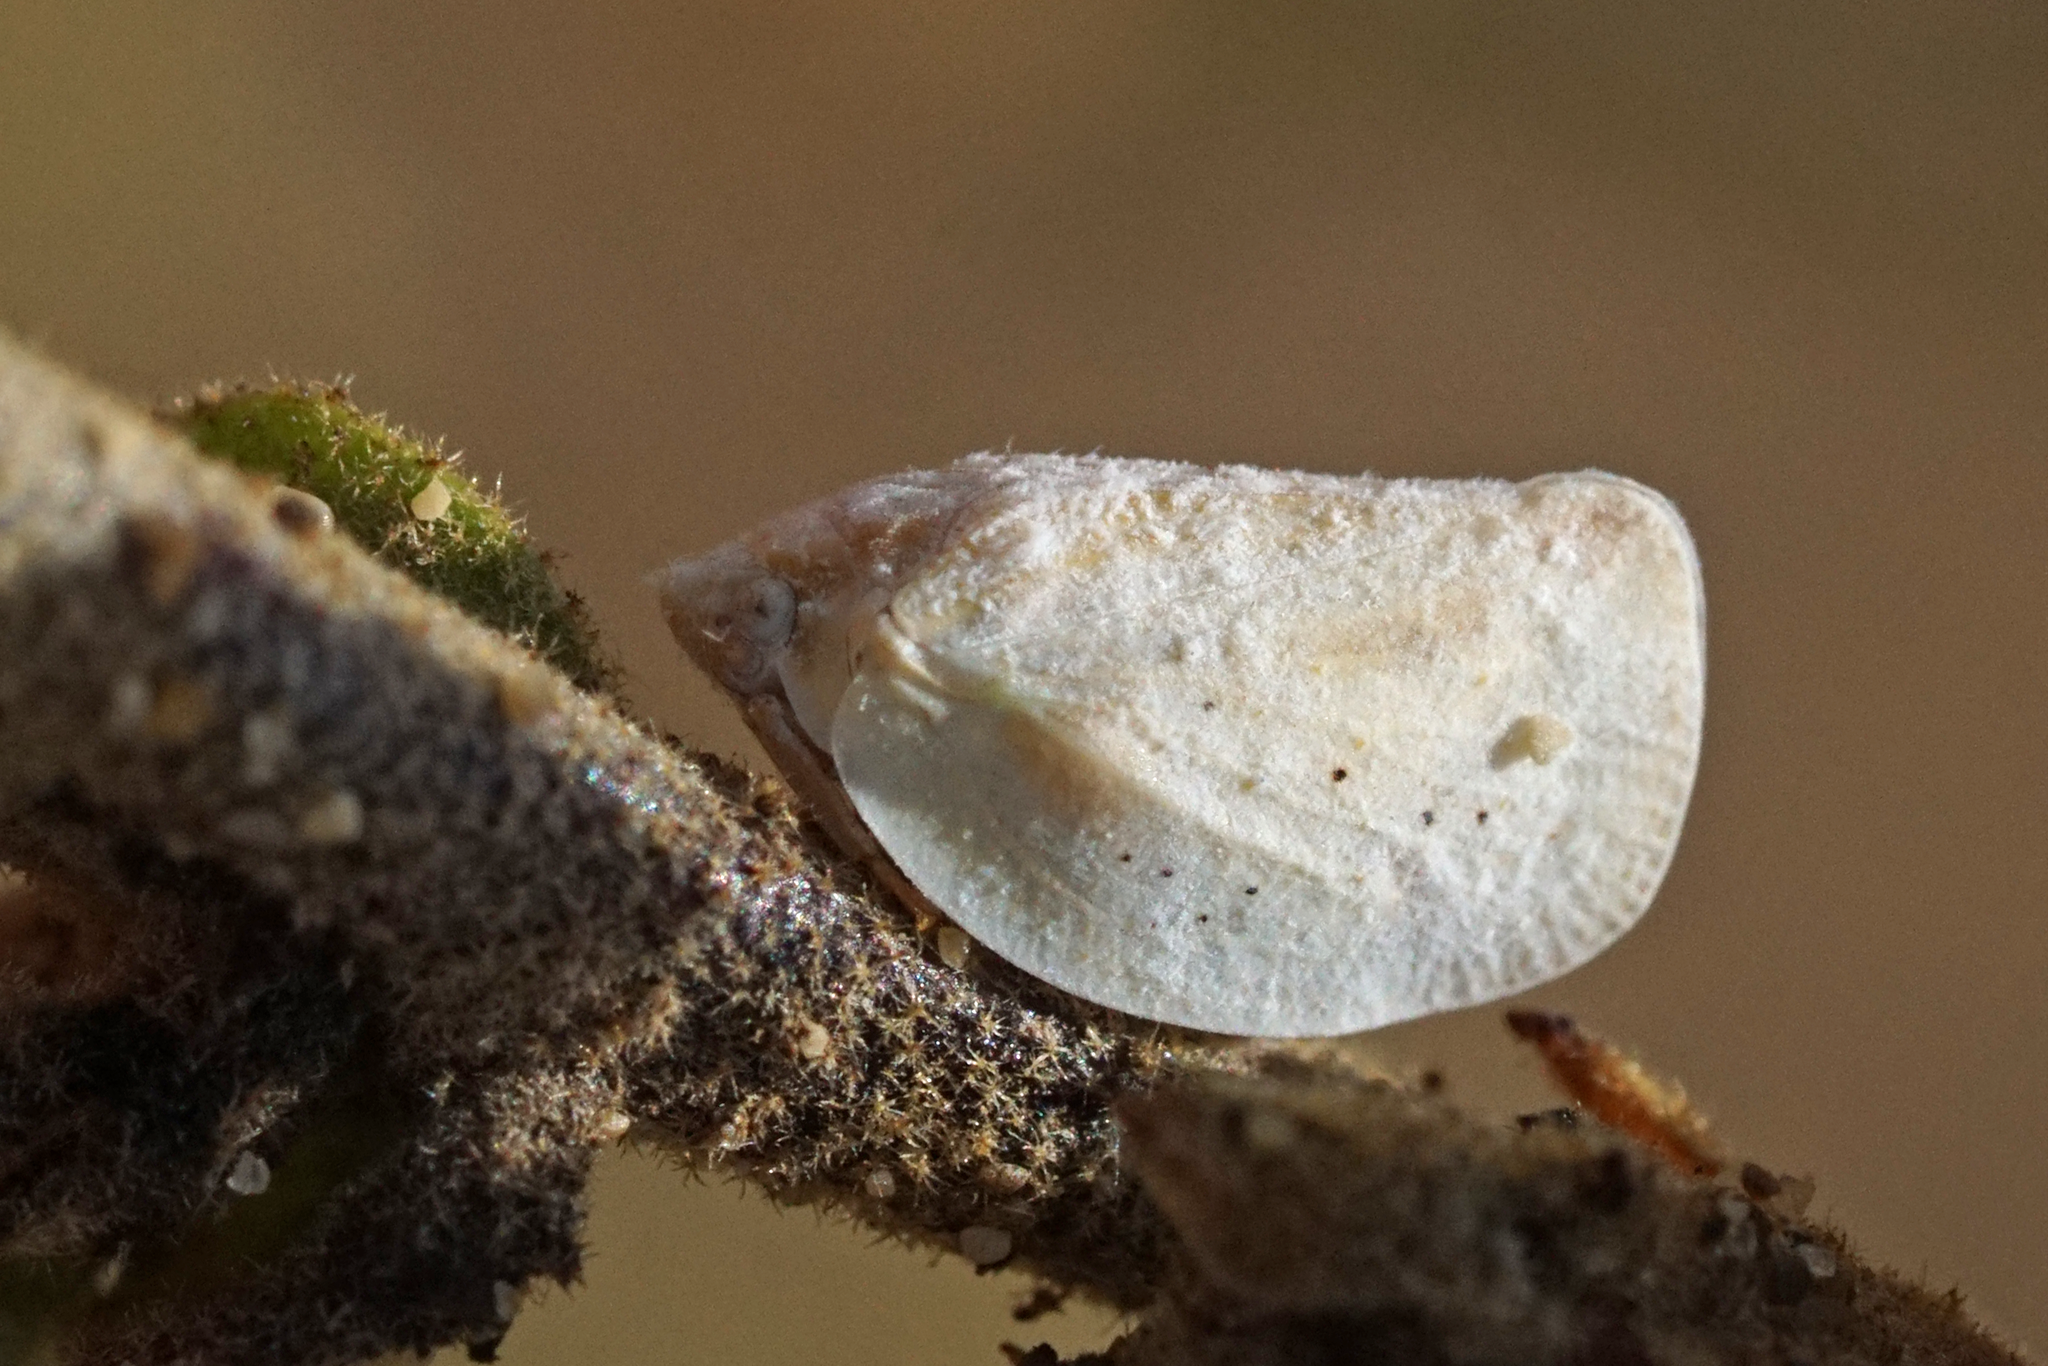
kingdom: Animalia
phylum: Arthropoda
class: Insecta
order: Hemiptera
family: Flatidae
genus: Phantia
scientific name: Phantia subquadrata
